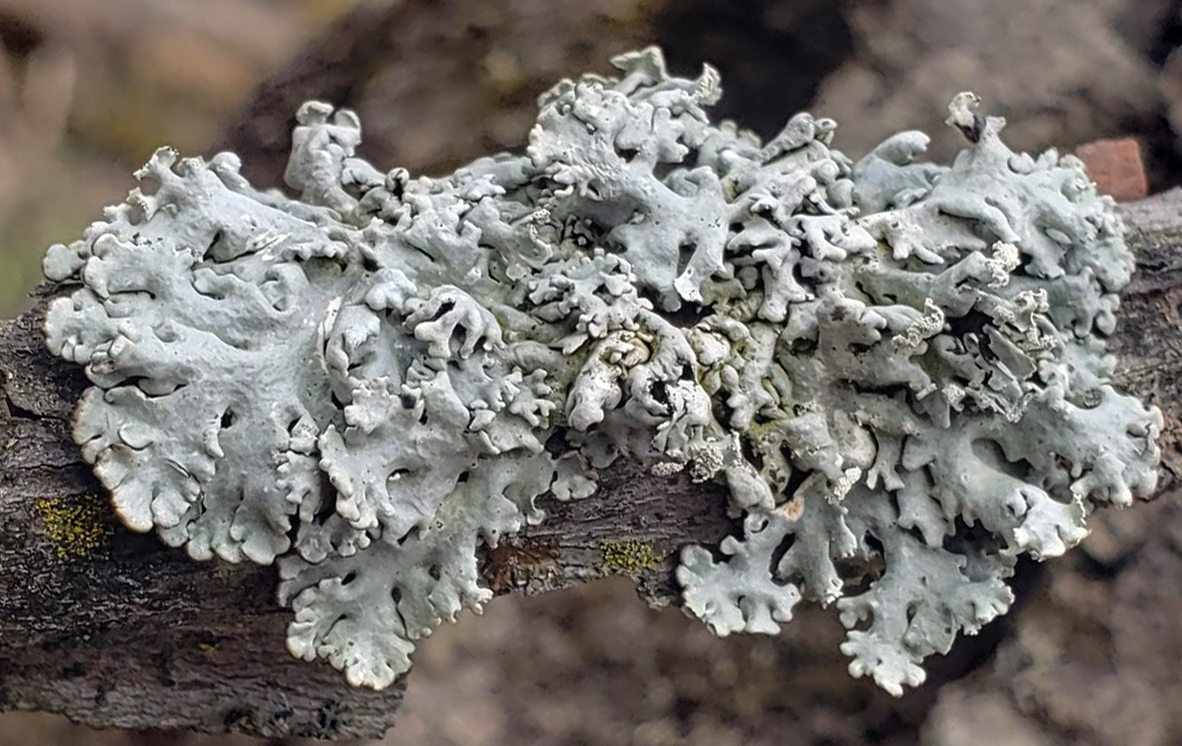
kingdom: Fungi
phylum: Ascomycota
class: Lecanoromycetes
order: Lecanorales
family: Parmeliaceae
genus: Hypogymnia
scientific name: Hypogymnia physodes
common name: Dark crottle
